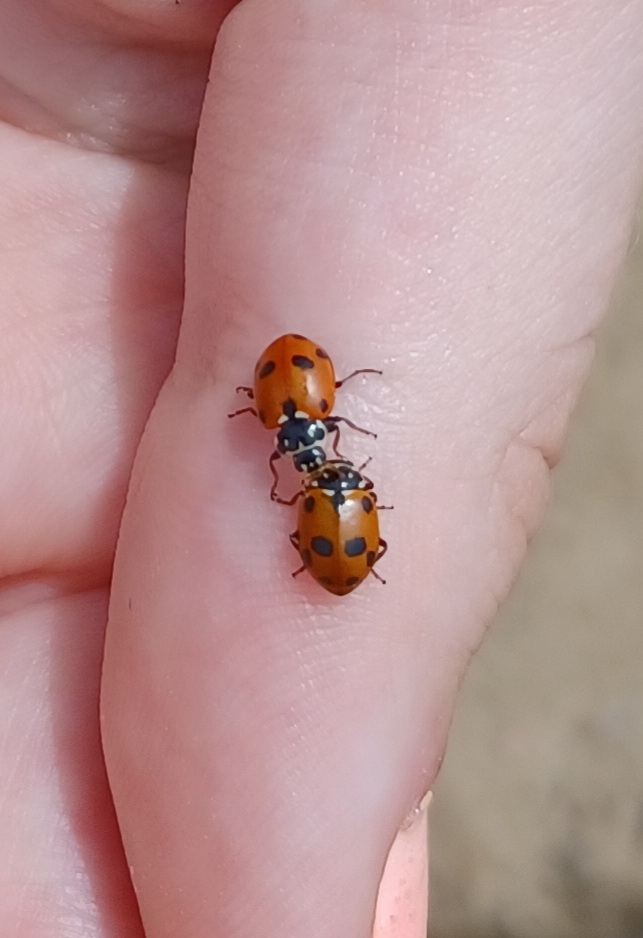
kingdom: Animalia
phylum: Arthropoda
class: Insecta
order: Coleoptera
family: Coccinellidae
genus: Hippodamia
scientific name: Hippodamia variegata
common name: Ladybird beetle
